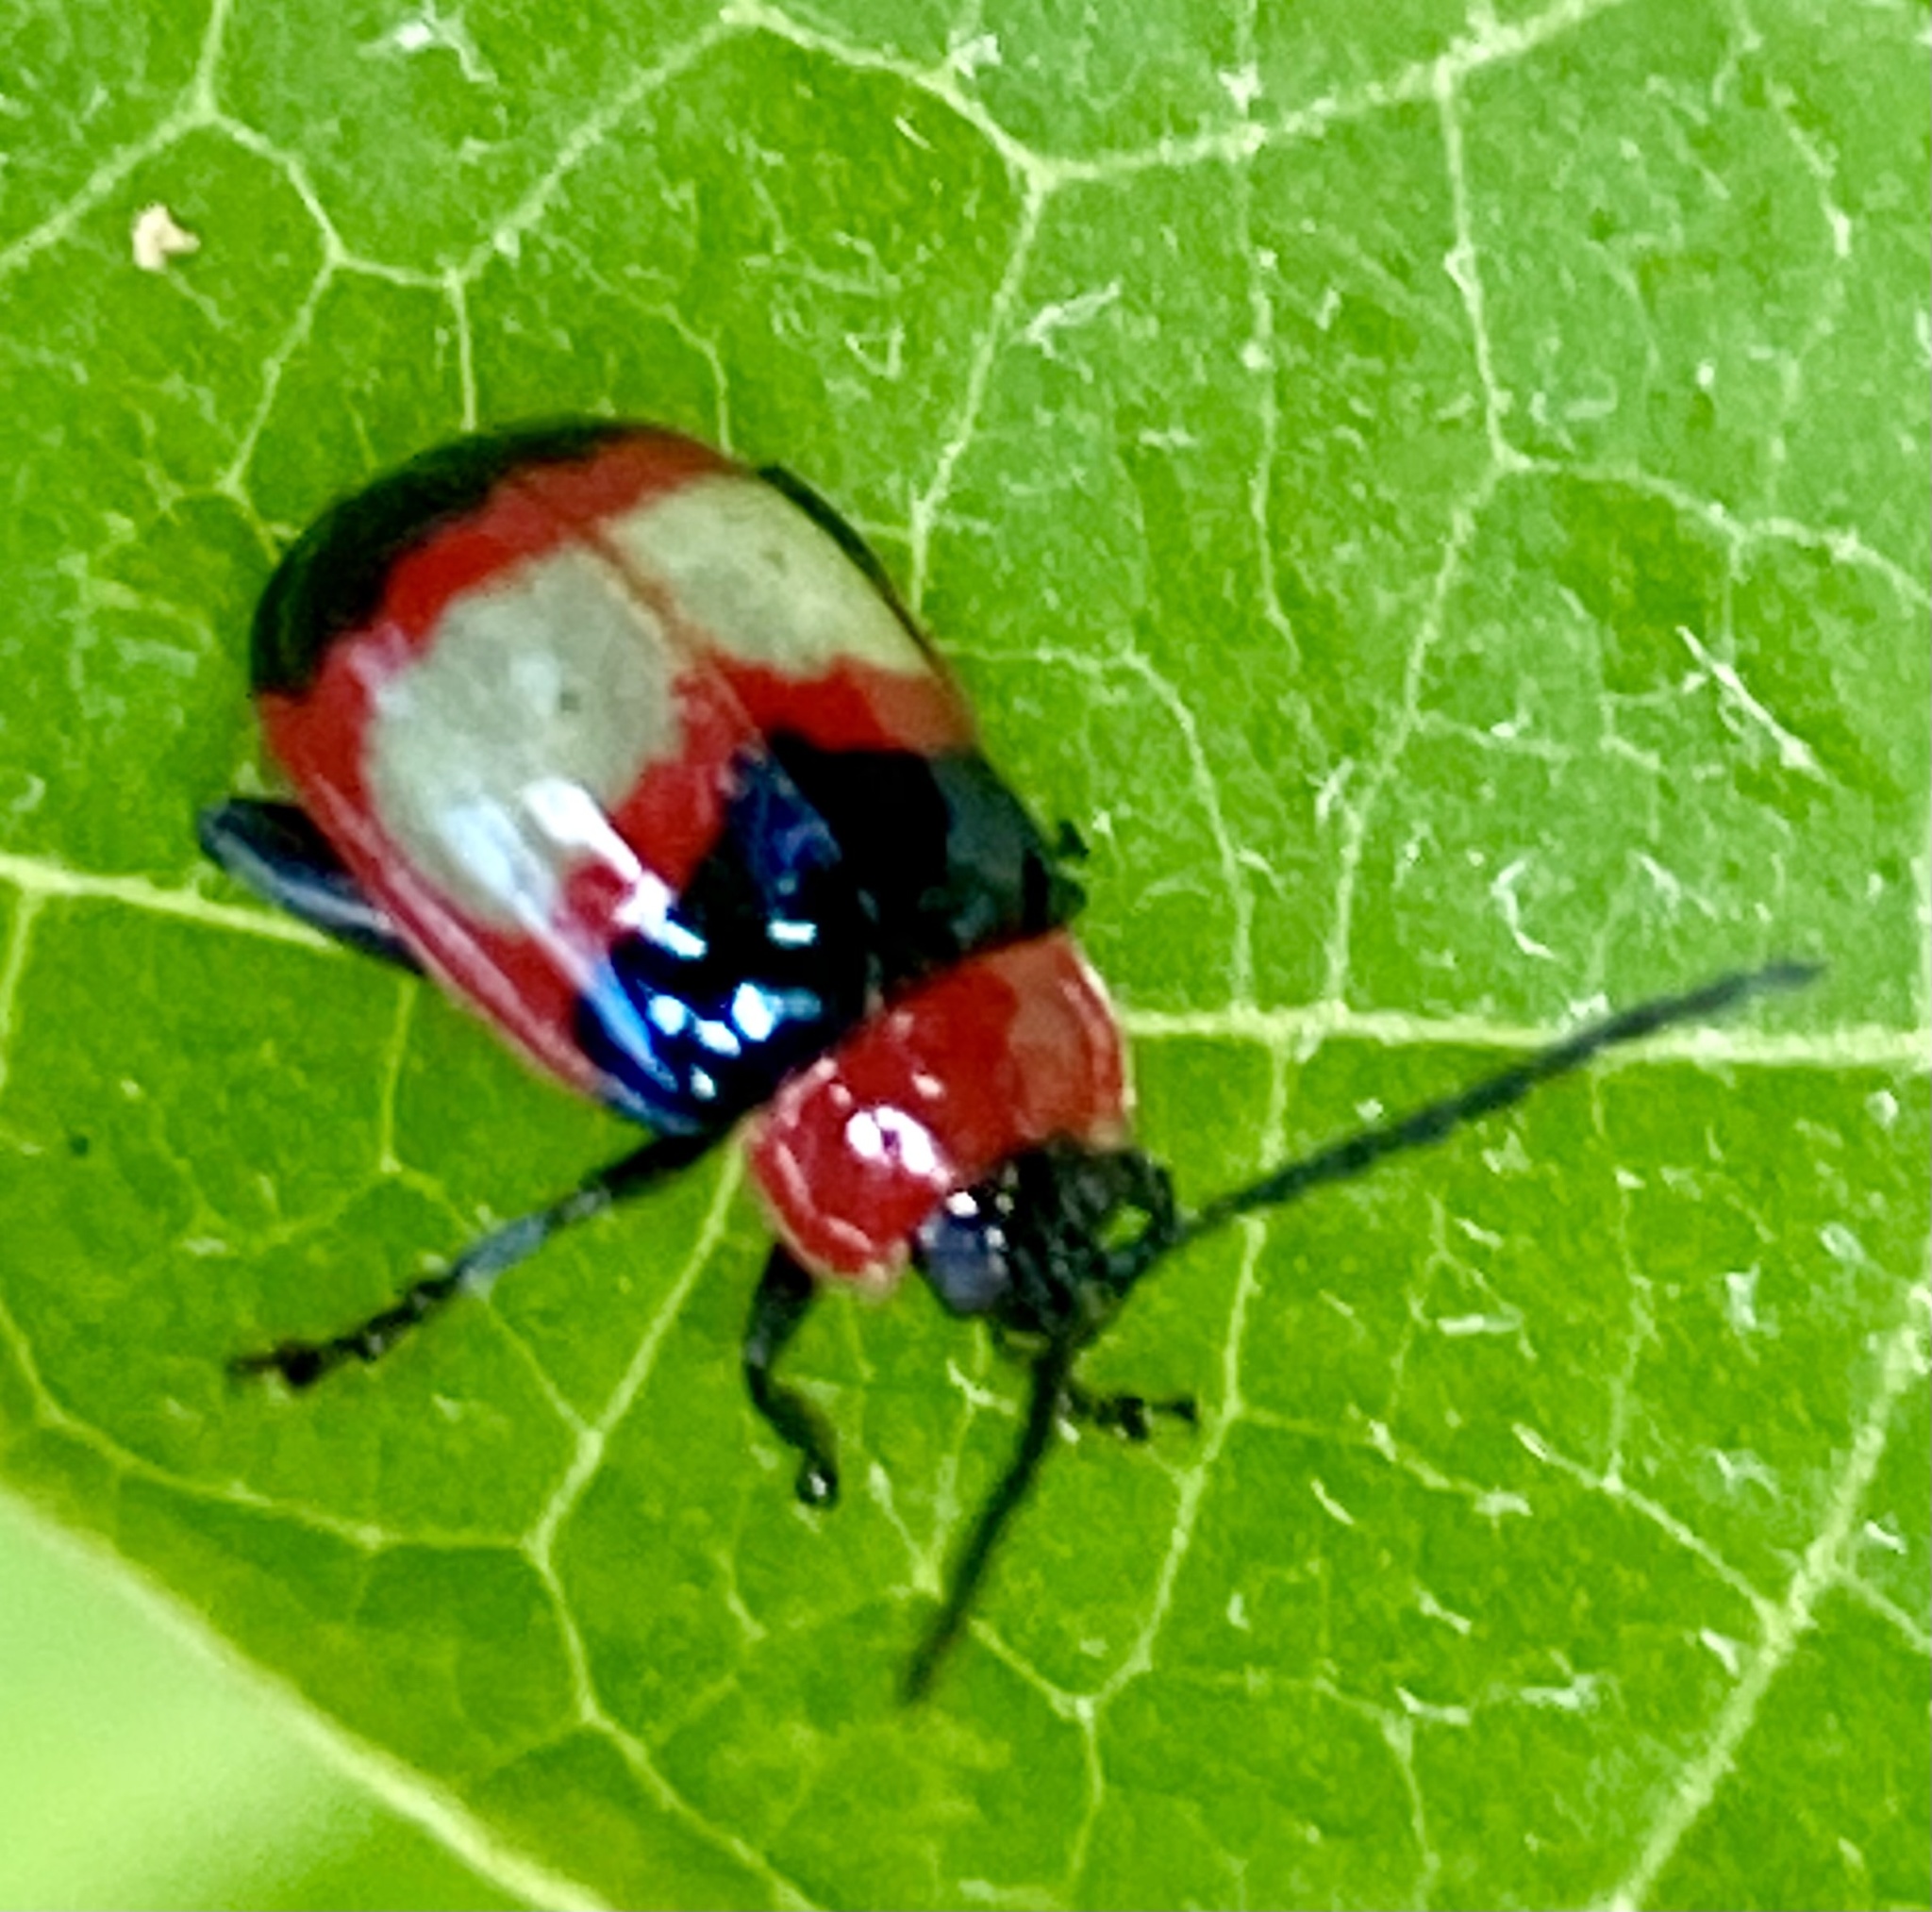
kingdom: Animalia
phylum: Arthropoda
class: Insecta
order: Coleoptera
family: Chrysomelidae
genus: Alagoasa
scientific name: Alagoasa
